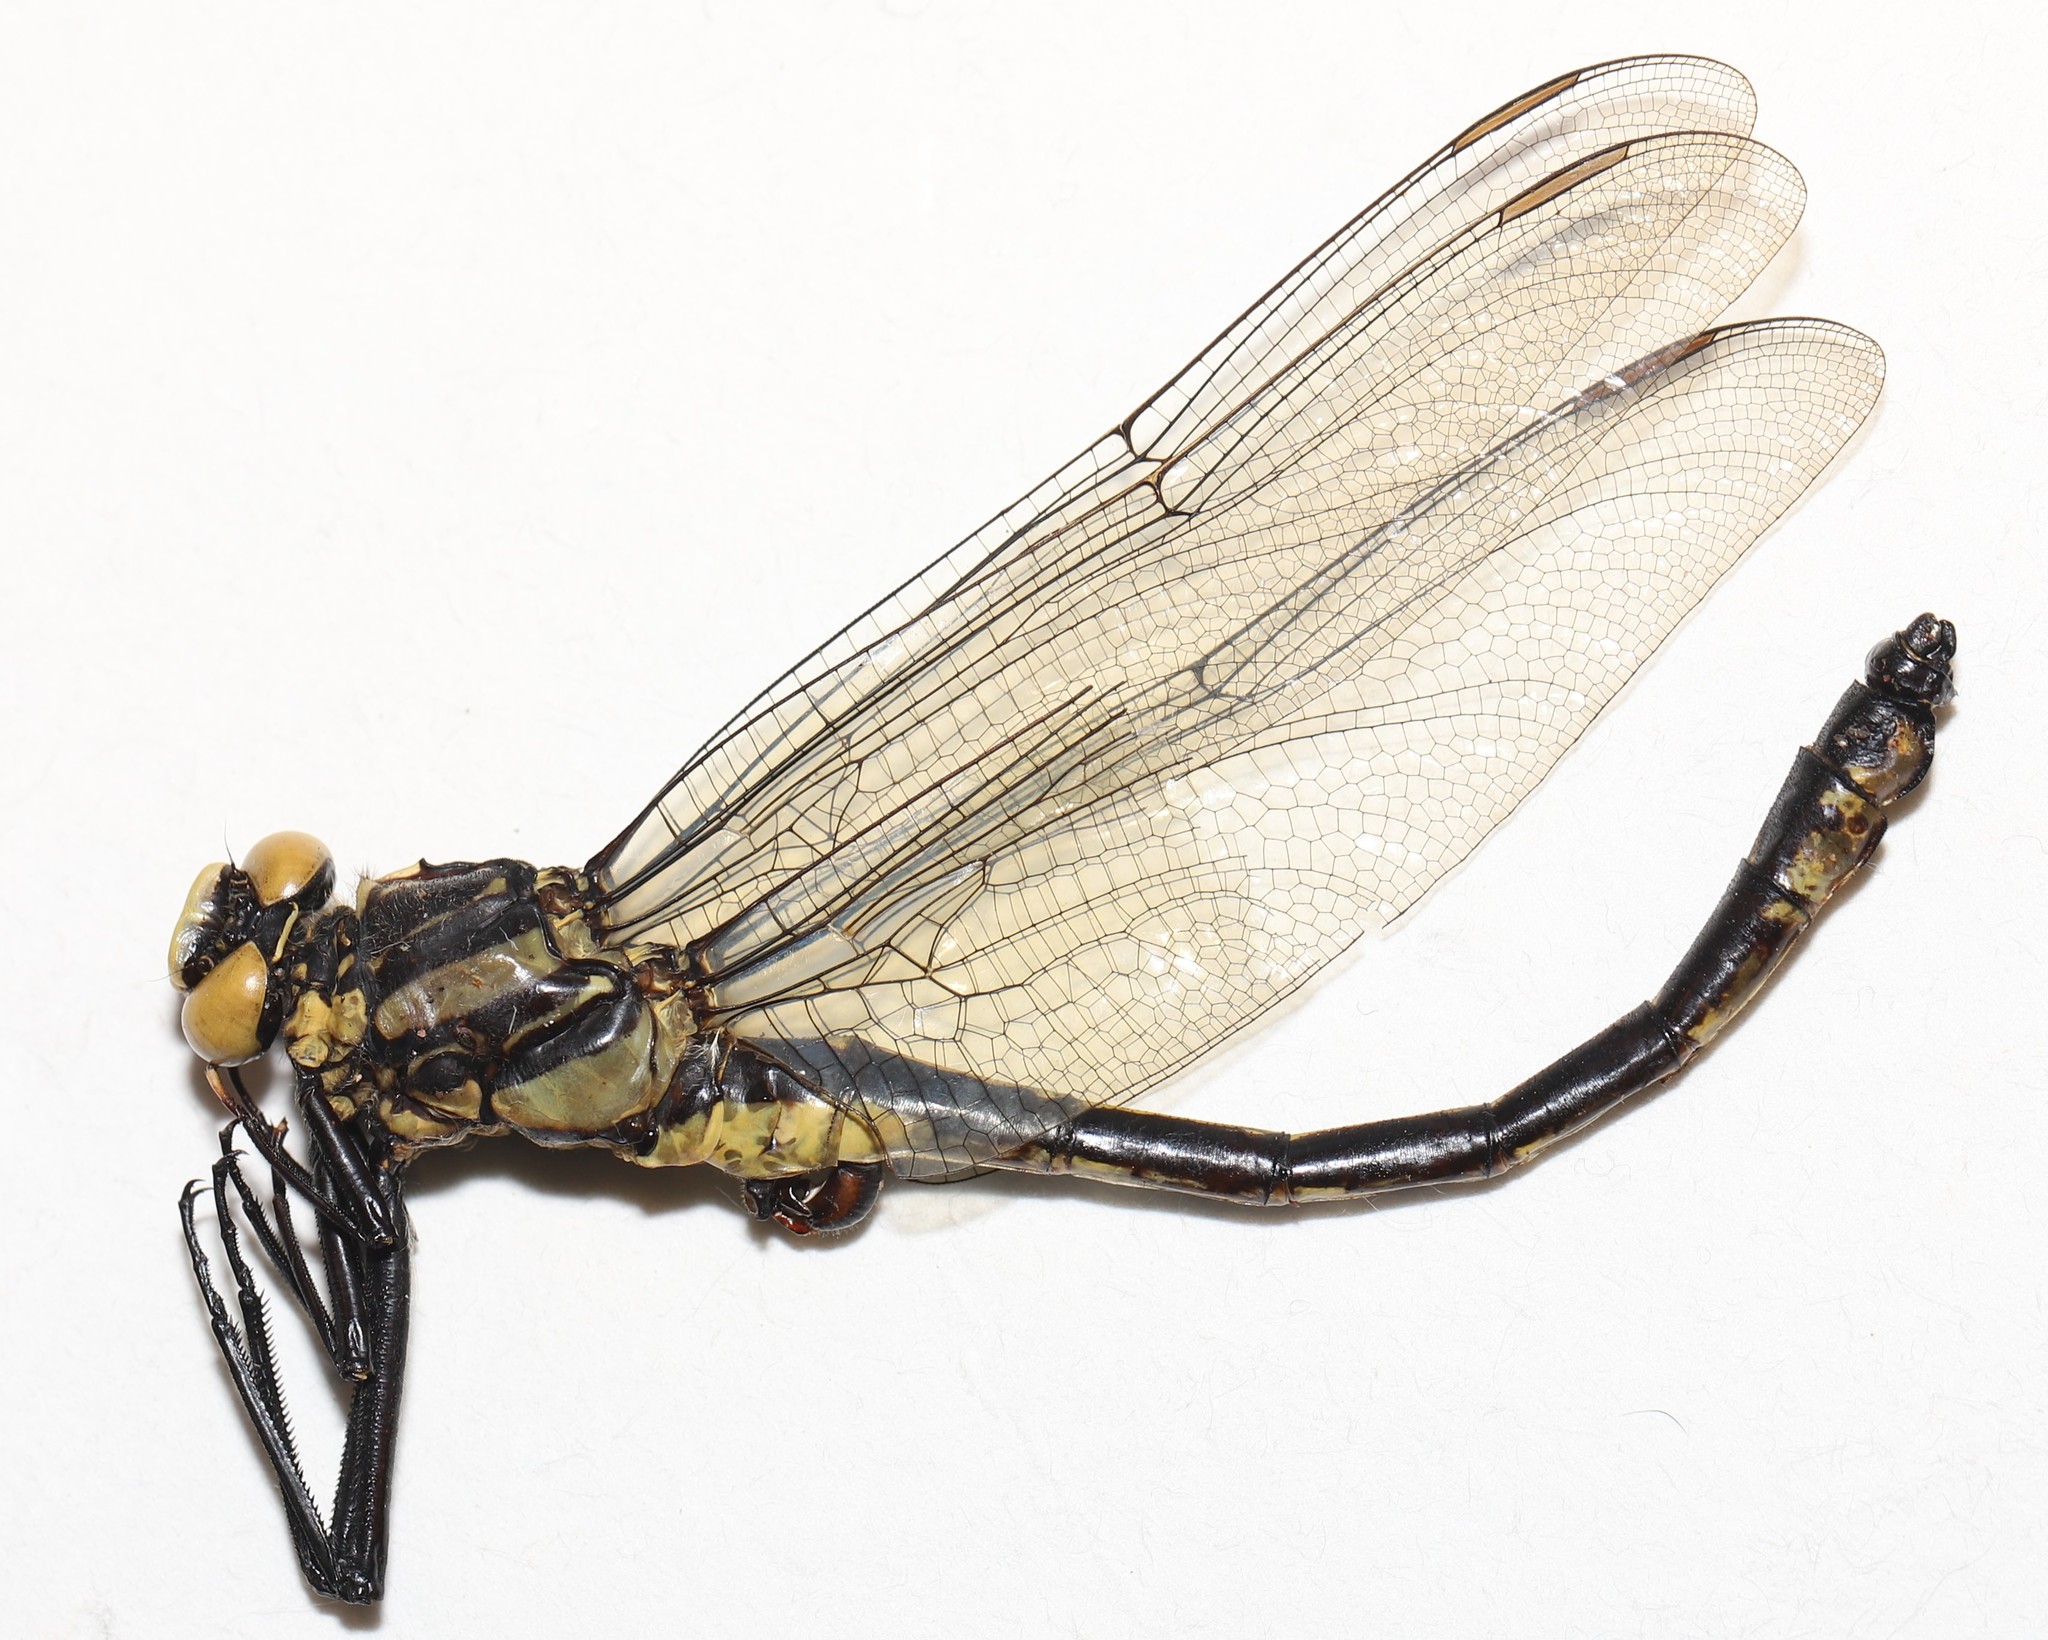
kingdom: Animalia
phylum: Arthropoda
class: Insecta
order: Odonata
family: Gomphidae
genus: Hagenius
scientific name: Hagenius brevistylus
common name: Dragonhunter
